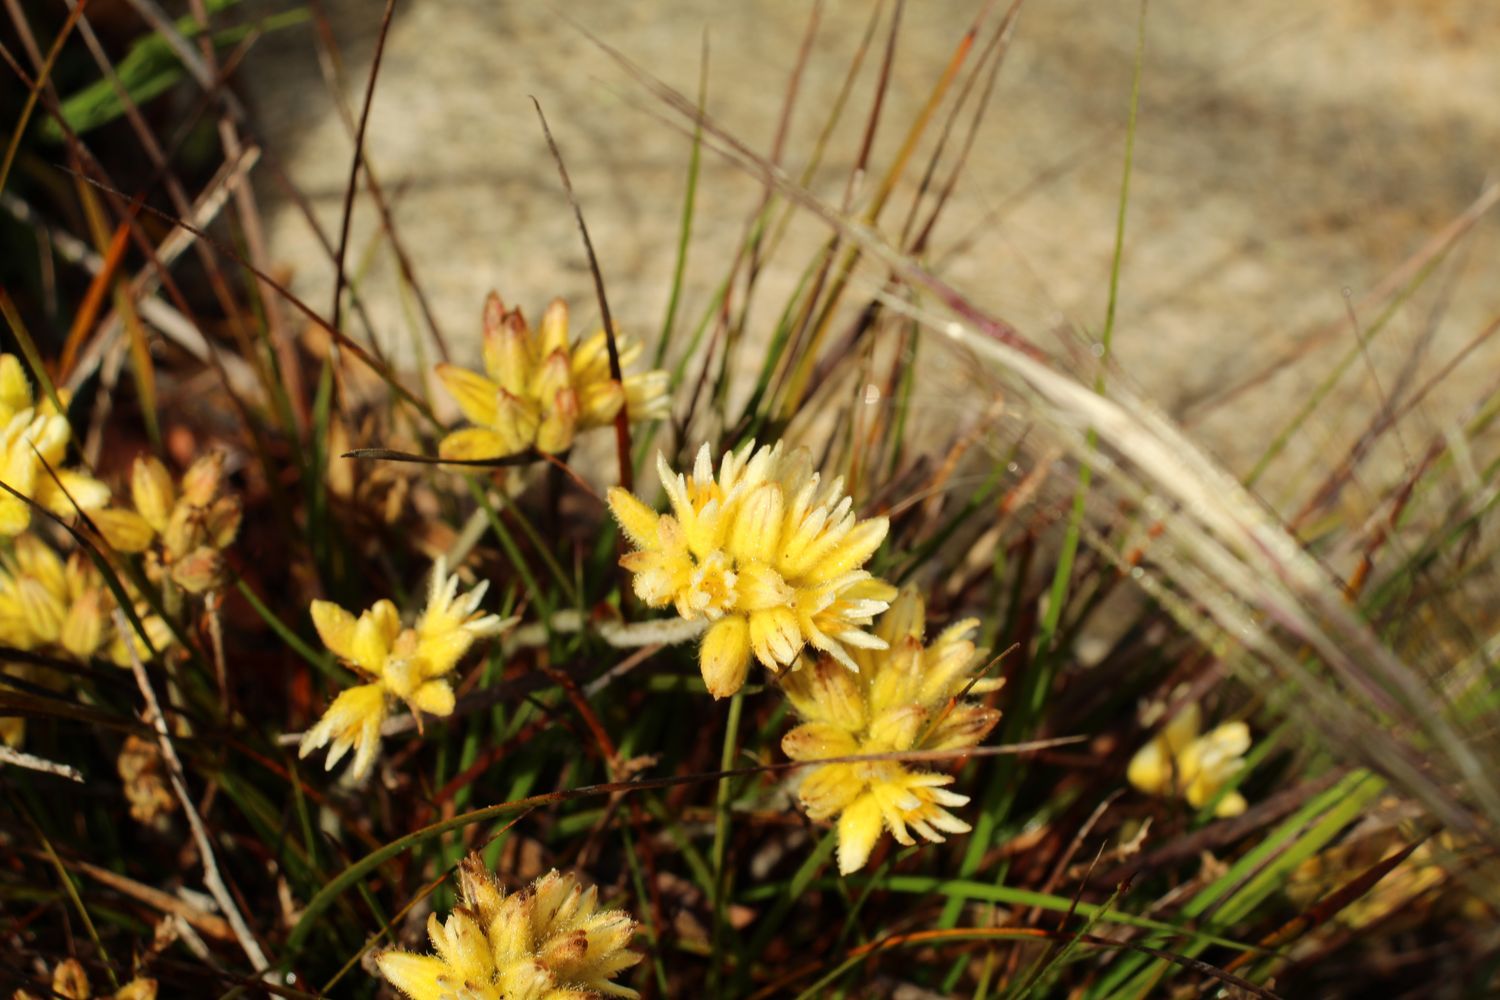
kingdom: Plantae
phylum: Tracheophyta
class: Liliopsida
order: Commelinales
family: Haemodoraceae
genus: Conostylis
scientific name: Conostylis setigera
